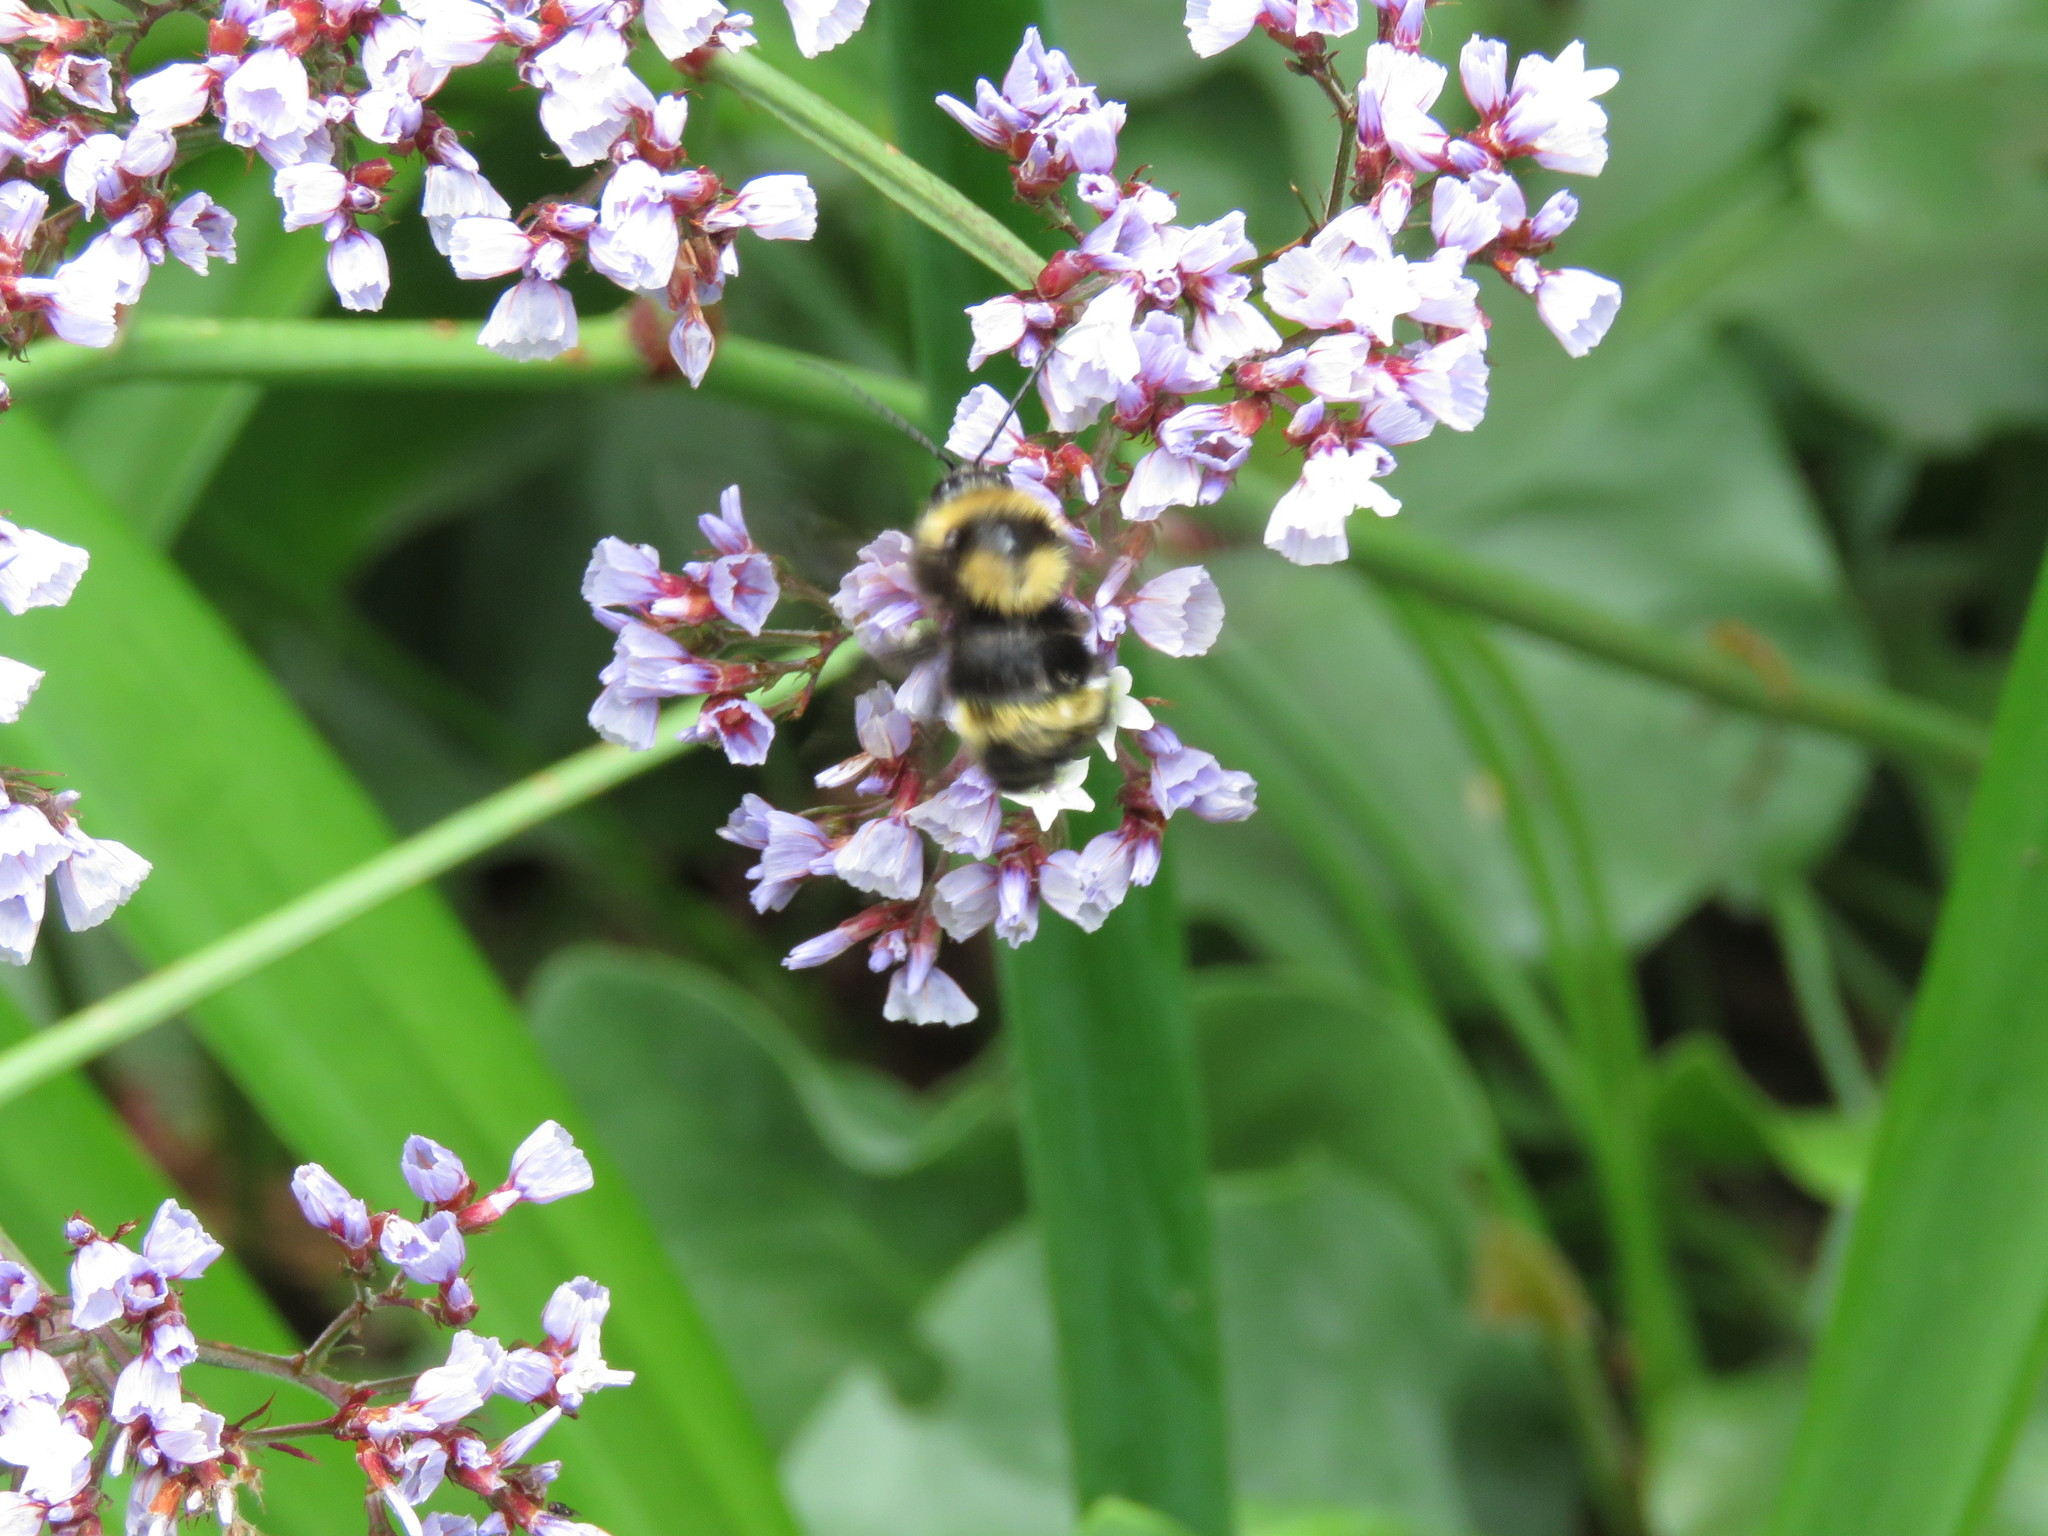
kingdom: Animalia
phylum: Arthropoda
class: Insecta
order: Hymenoptera
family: Apidae
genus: Bombus
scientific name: Bombus pauloensis
